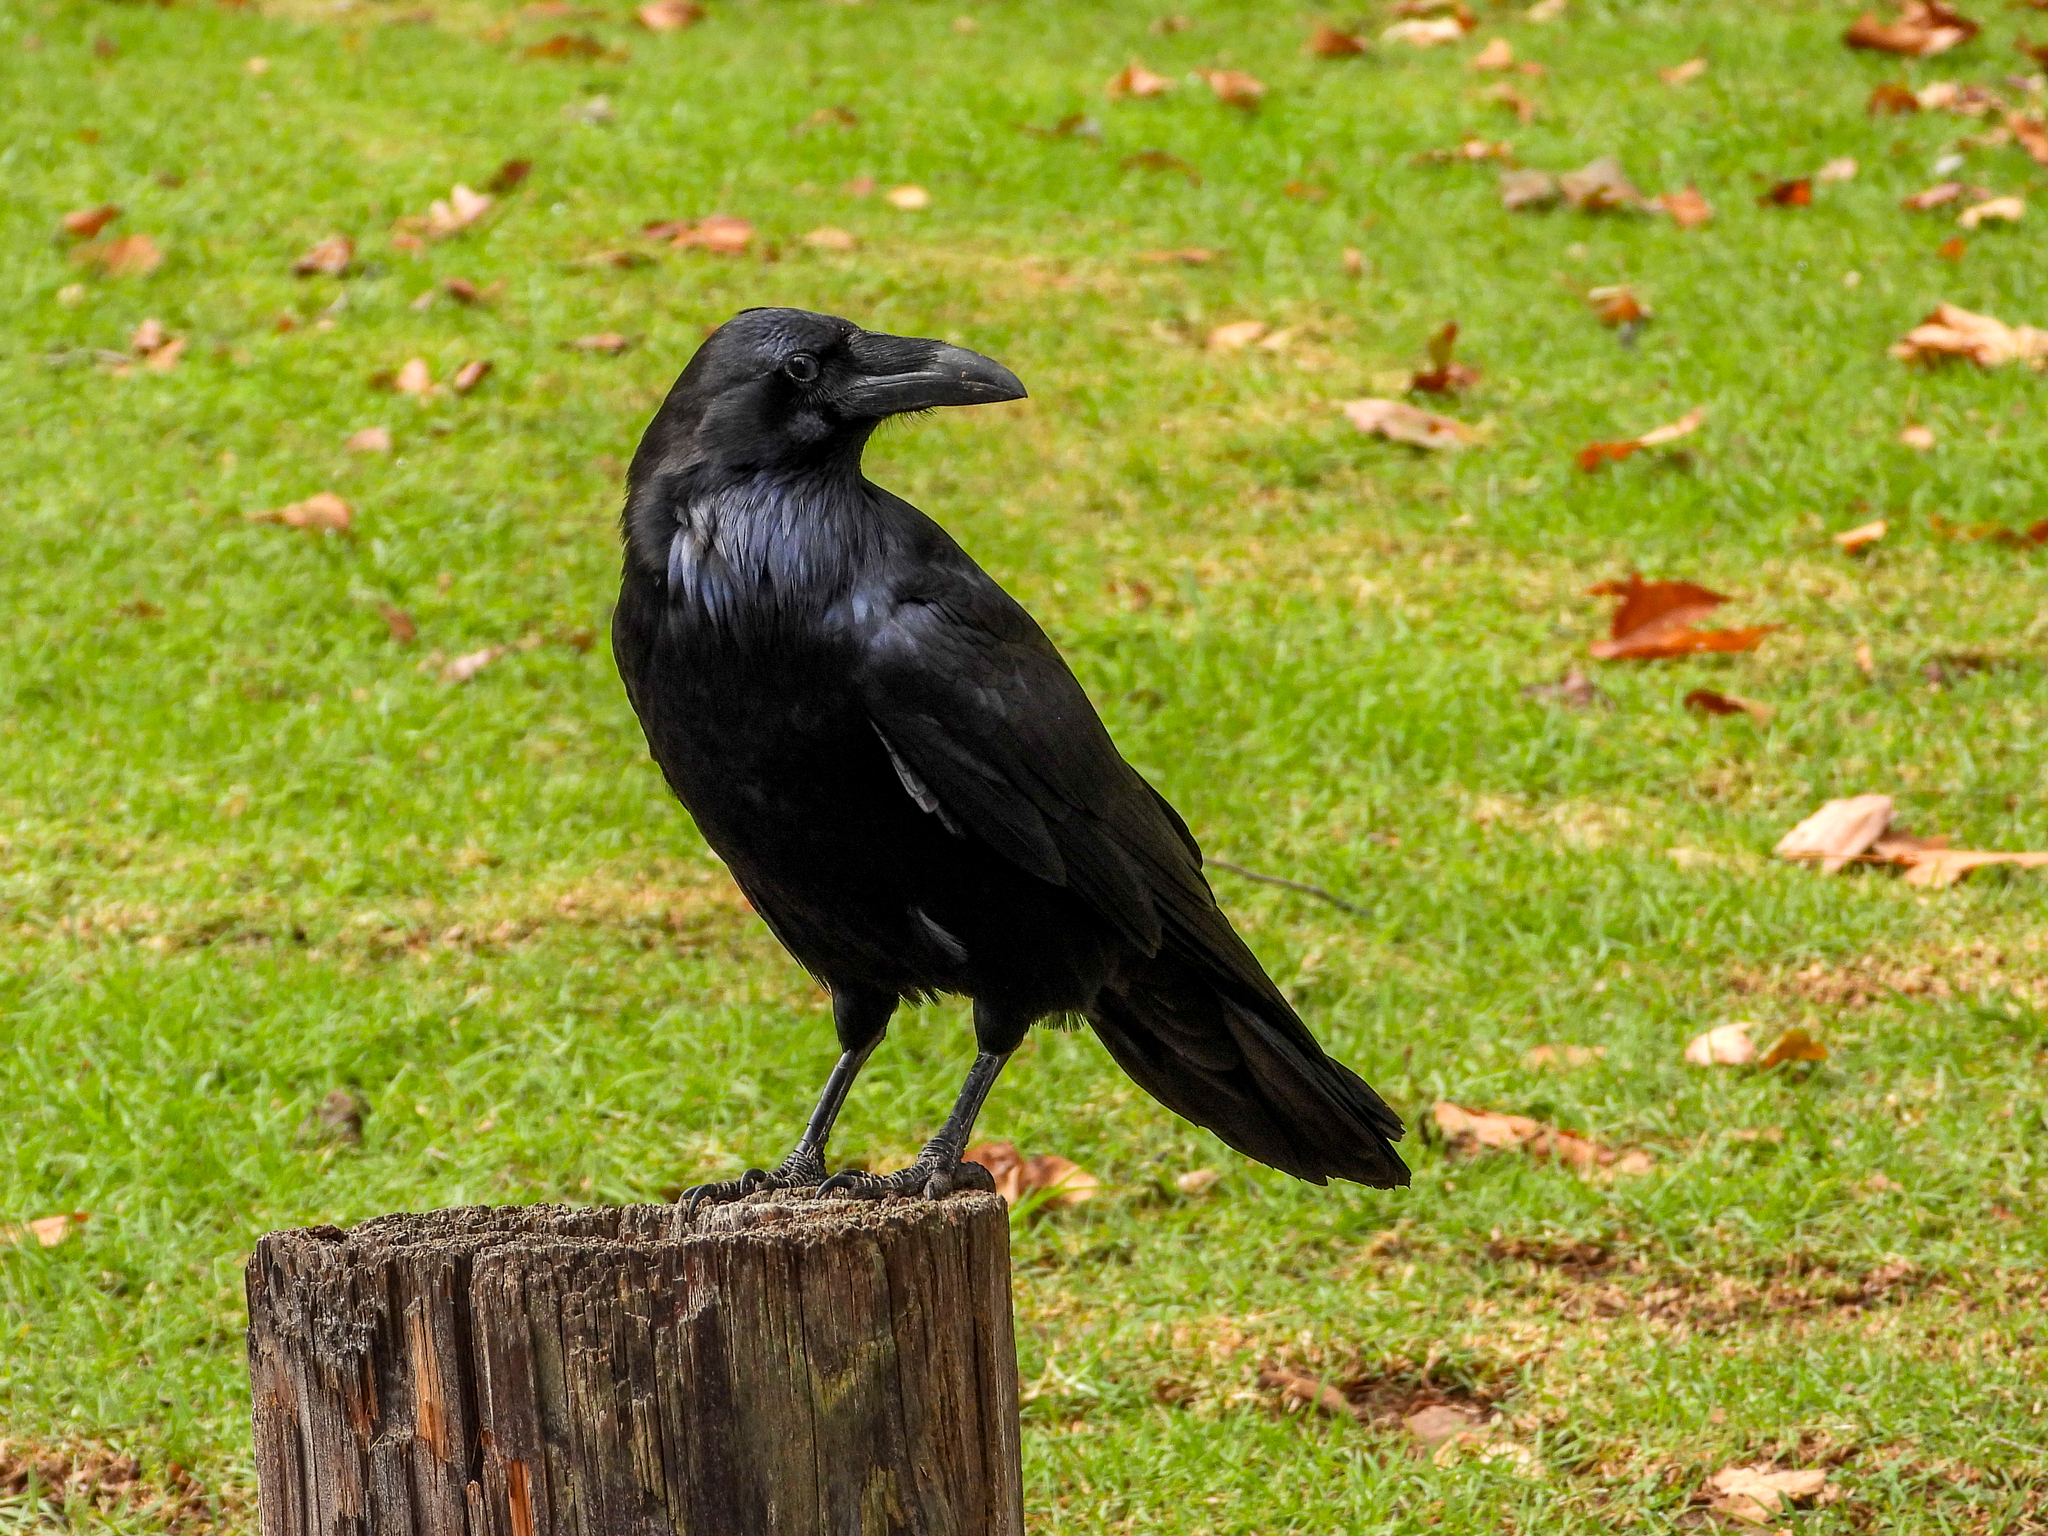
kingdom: Animalia
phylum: Chordata
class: Aves
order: Passeriformes
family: Corvidae
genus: Corvus
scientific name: Corvus corax
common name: Common raven
